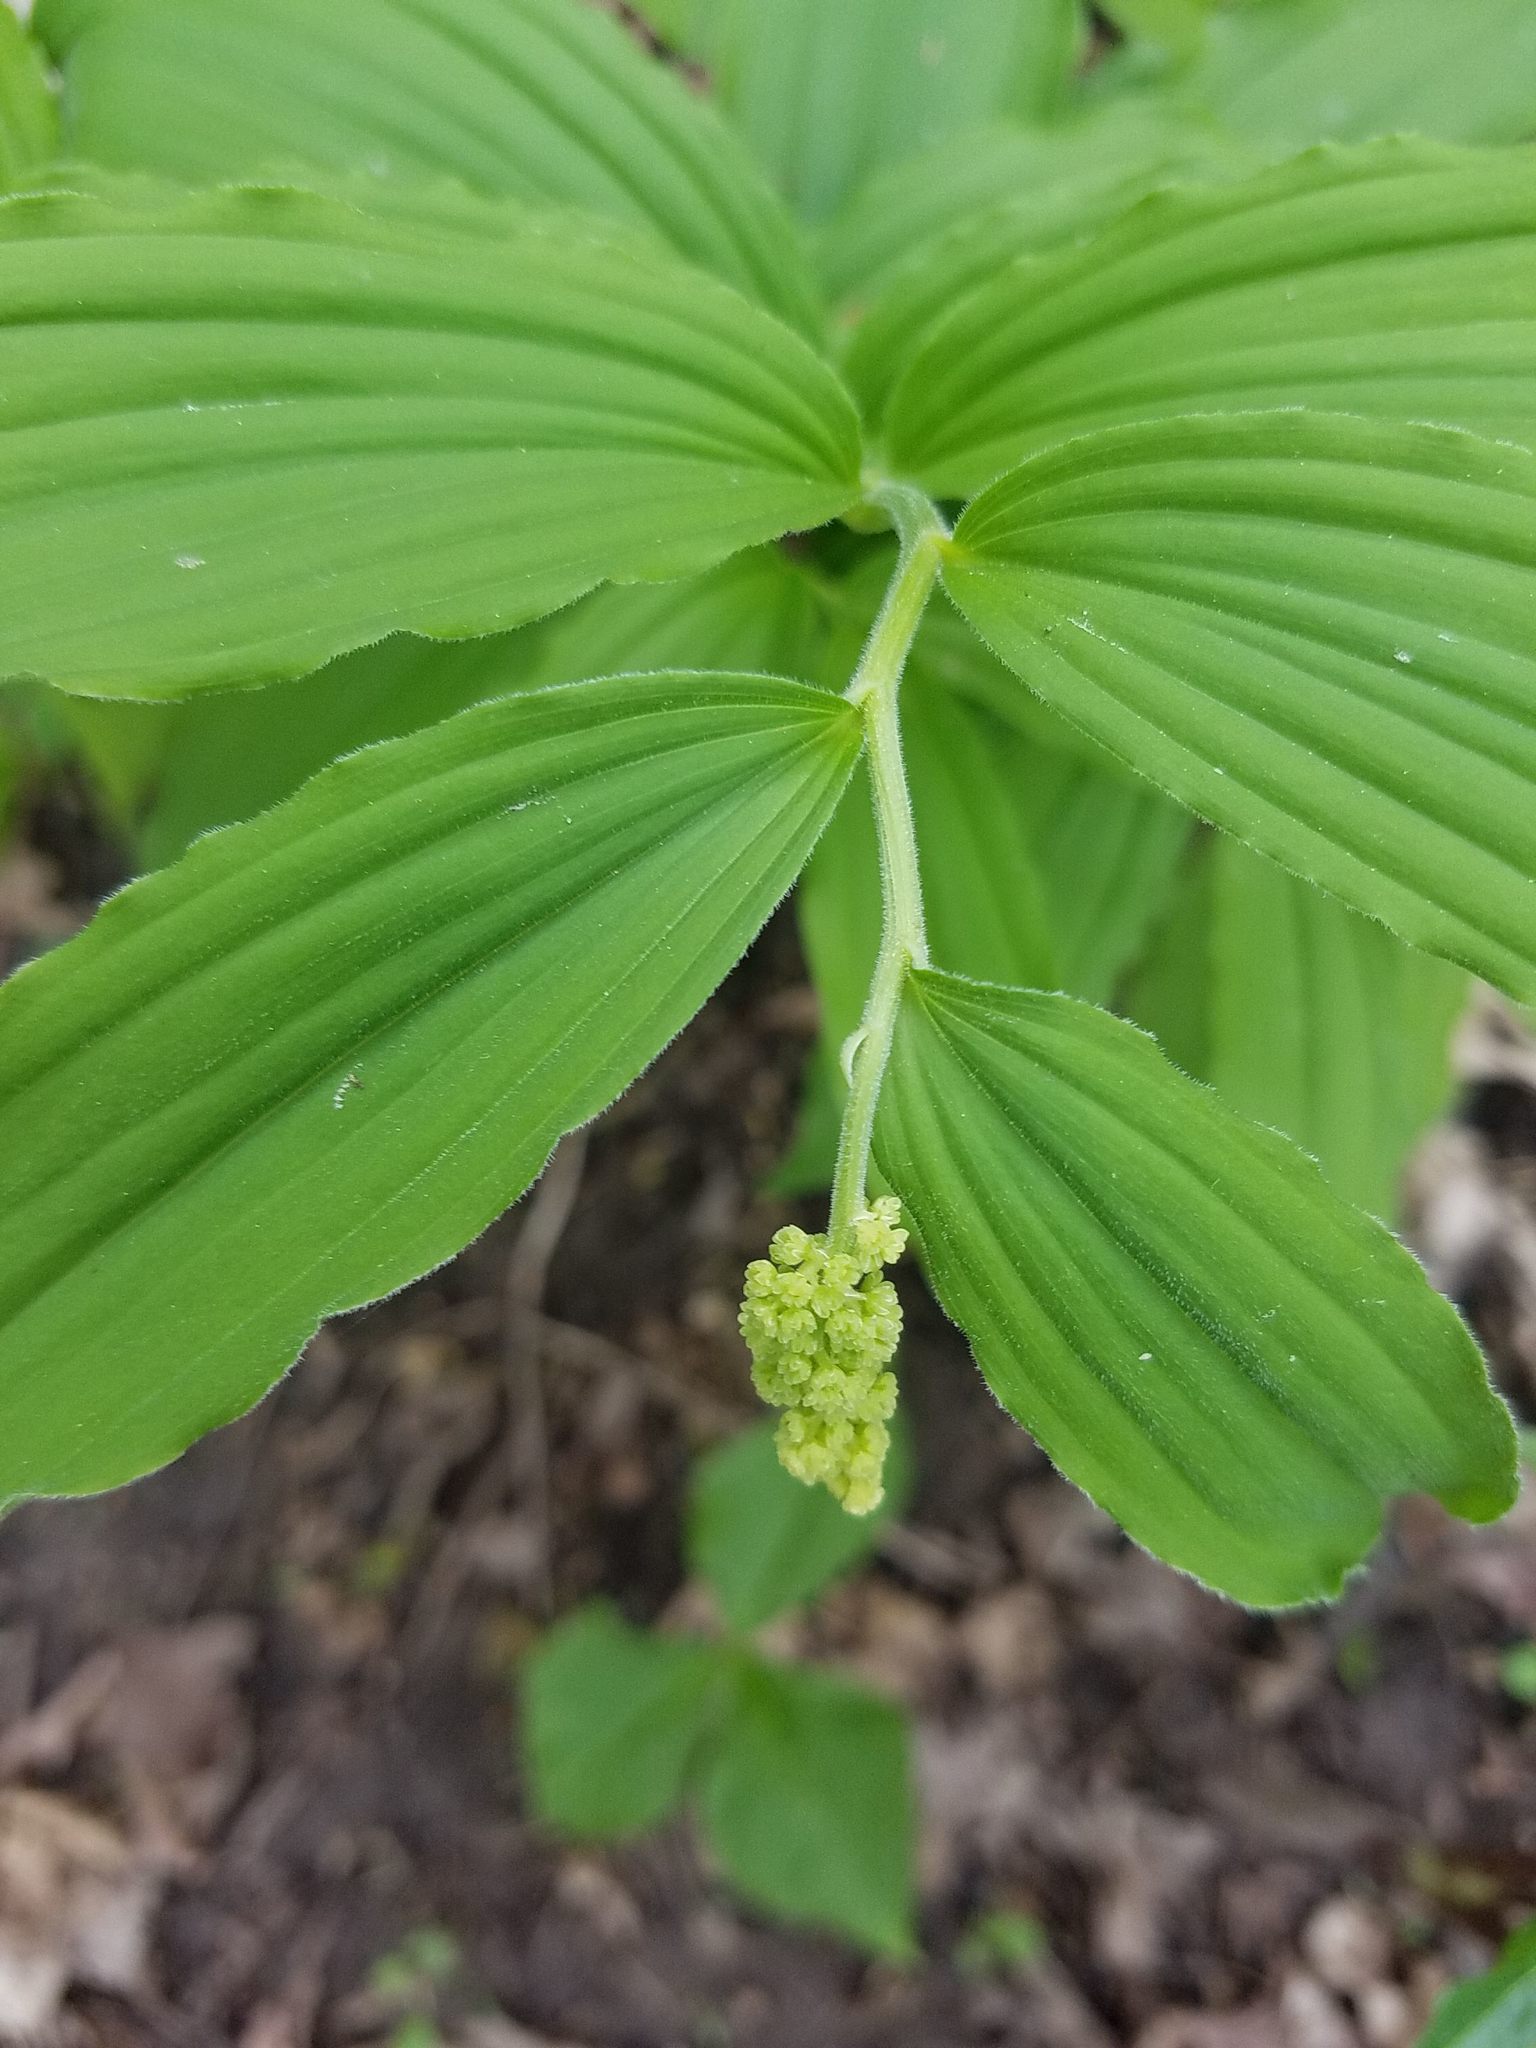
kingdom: Plantae
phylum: Tracheophyta
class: Liliopsida
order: Asparagales
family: Asparagaceae
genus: Maianthemum
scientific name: Maianthemum racemosum
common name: False spikenard
